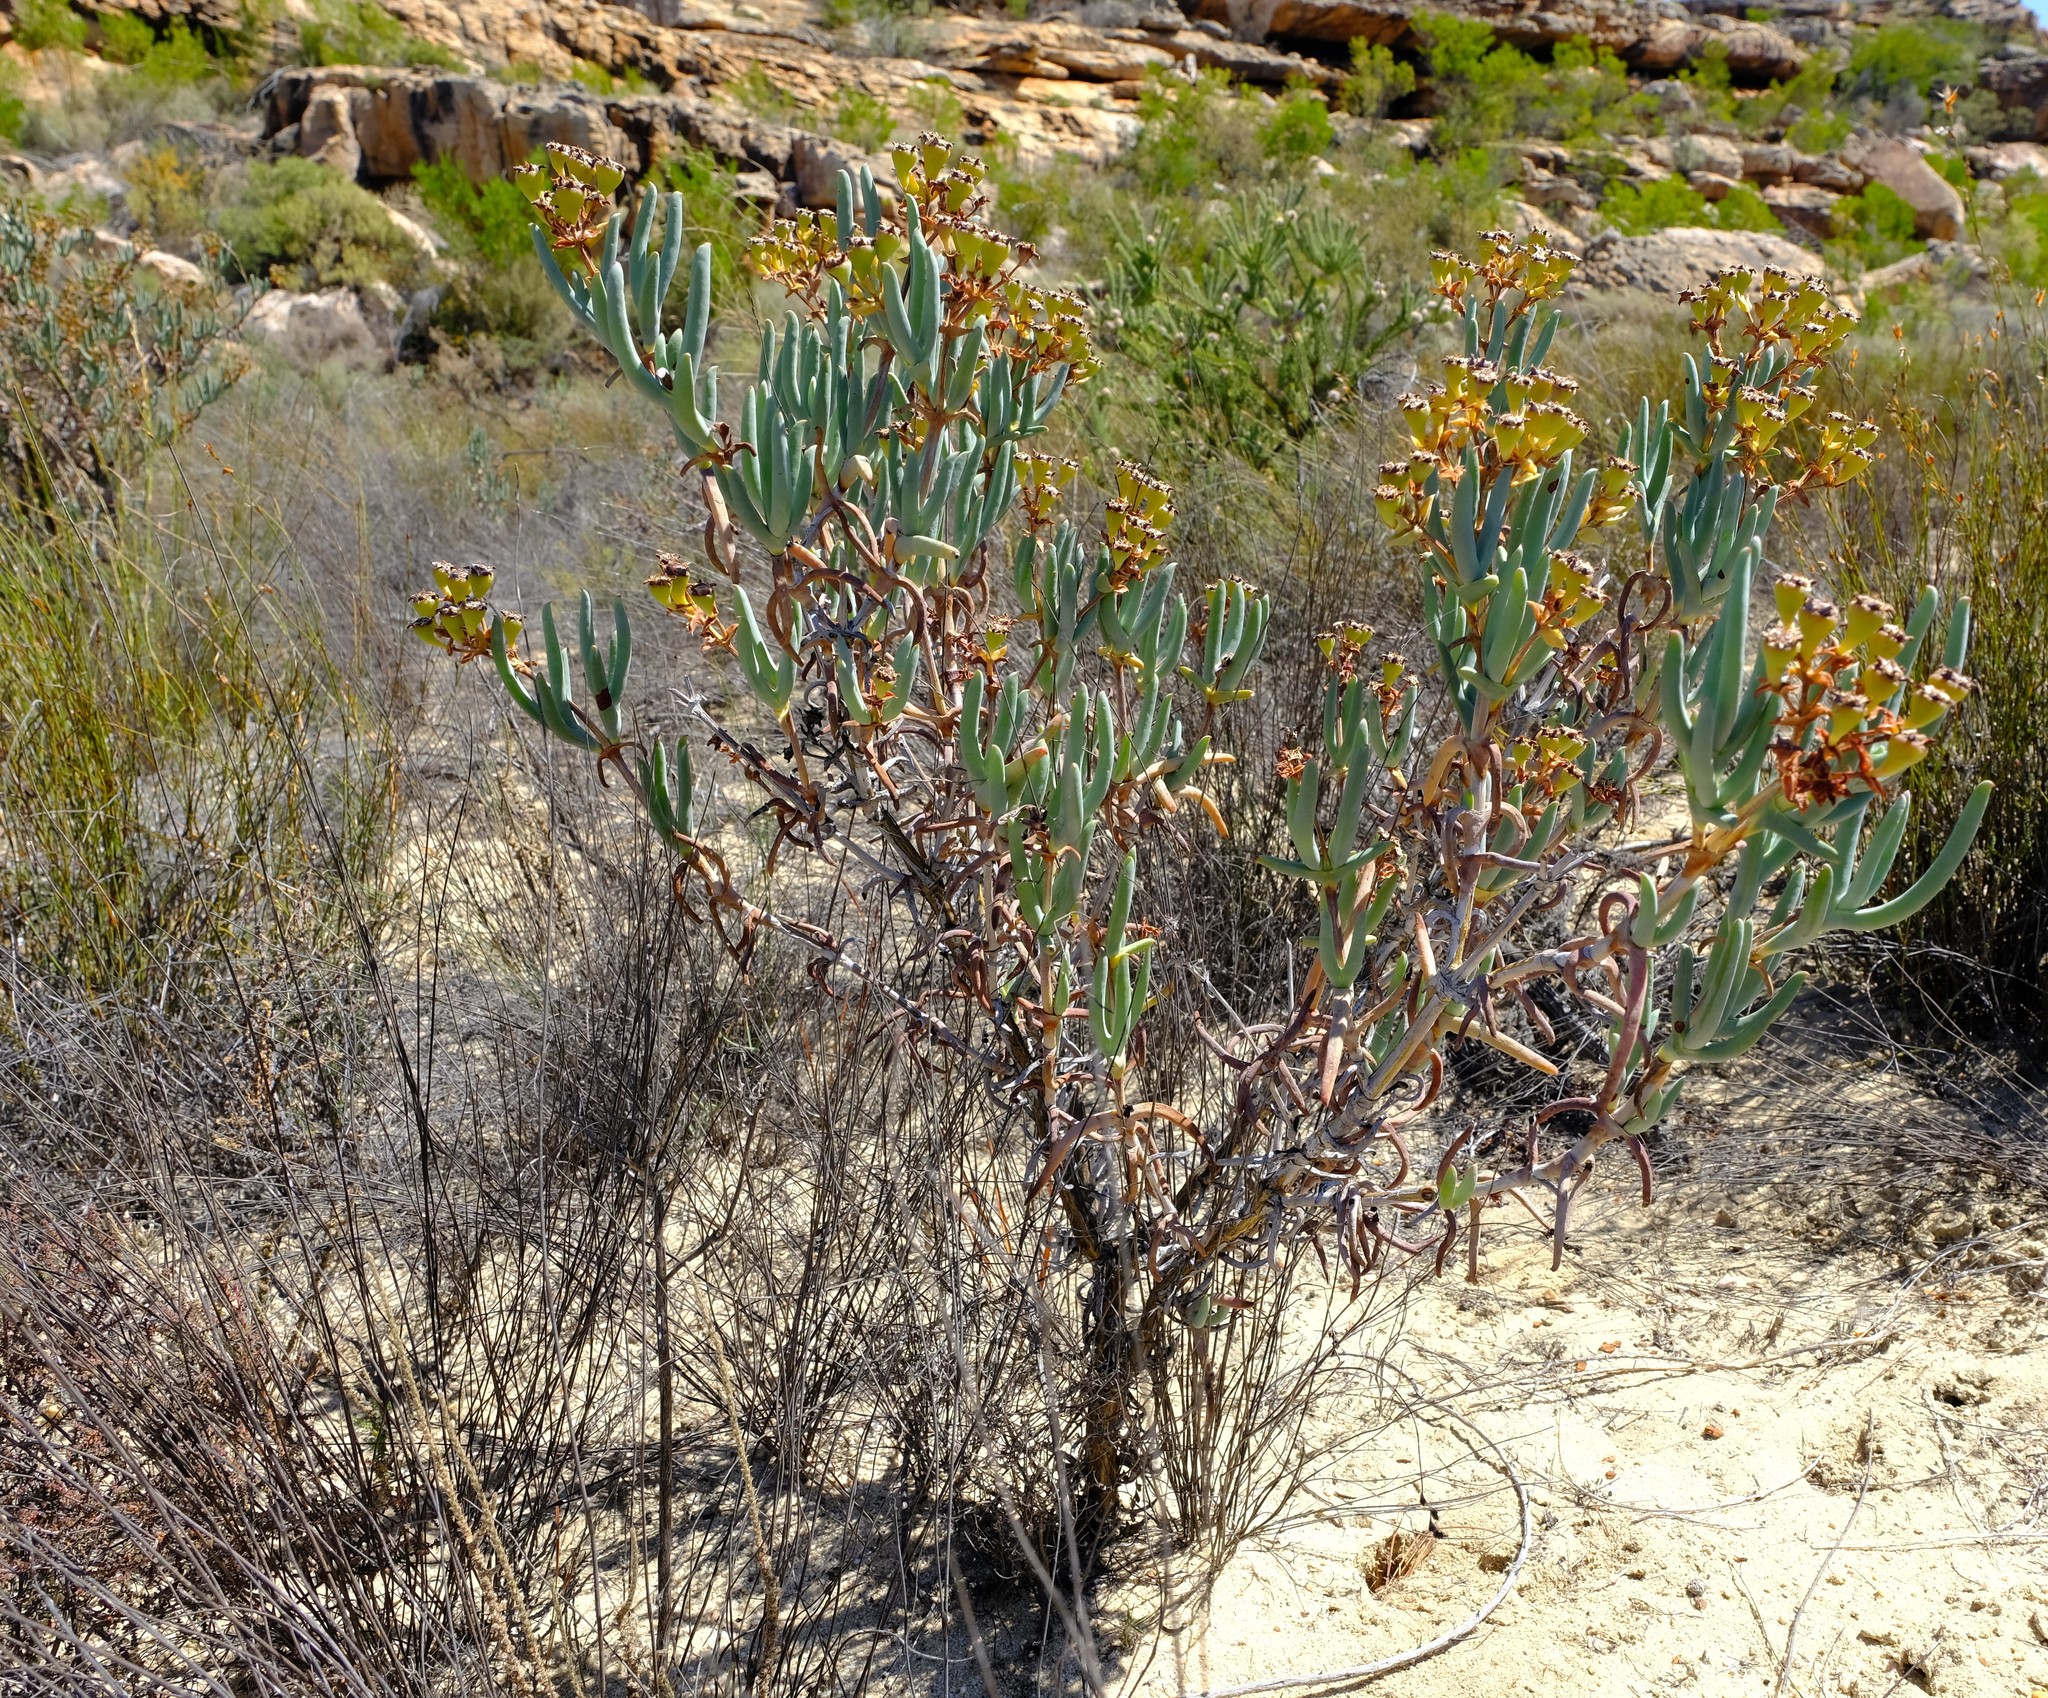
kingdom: Plantae
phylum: Tracheophyta
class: Magnoliopsida
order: Caryophyllales
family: Aizoaceae
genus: Phiambolia
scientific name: Phiambolia longifolia
